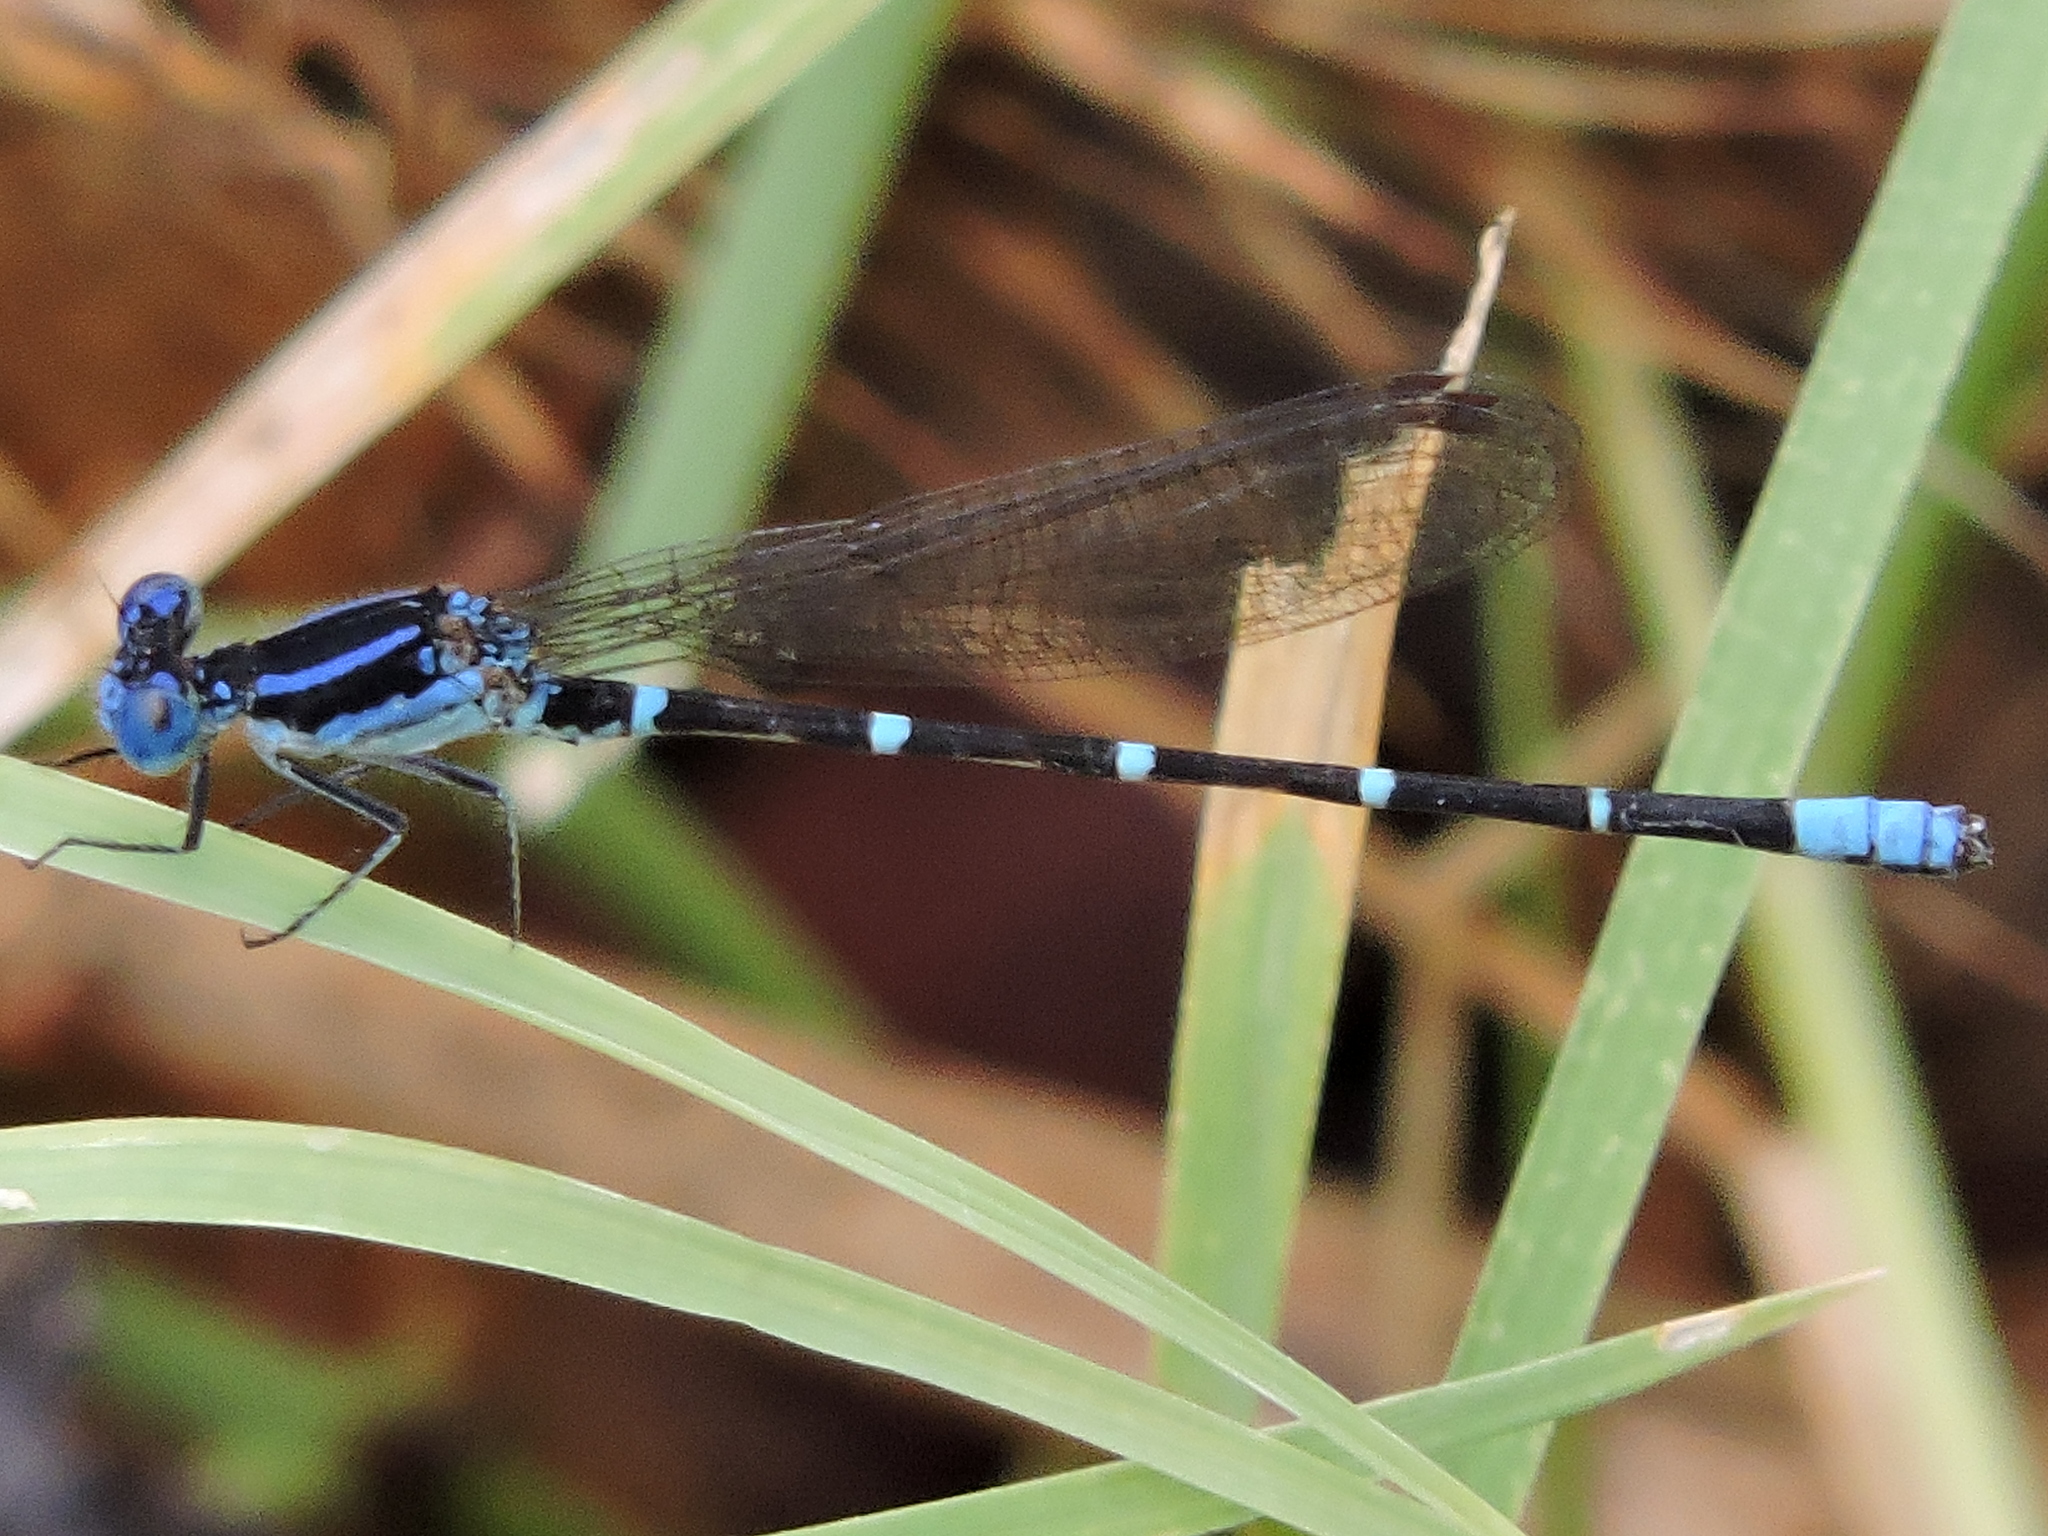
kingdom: Animalia
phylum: Arthropoda
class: Insecta
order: Odonata
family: Coenagrionidae
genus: Argia
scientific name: Argia sedula
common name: Blue-ringed dancer
